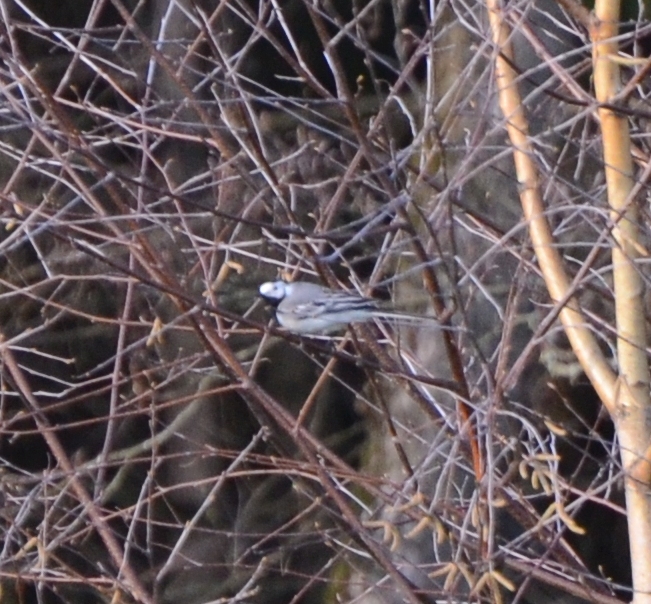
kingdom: Animalia
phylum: Chordata
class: Aves
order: Passeriformes
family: Motacillidae
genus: Motacilla
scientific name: Motacilla alba
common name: White wagtail
